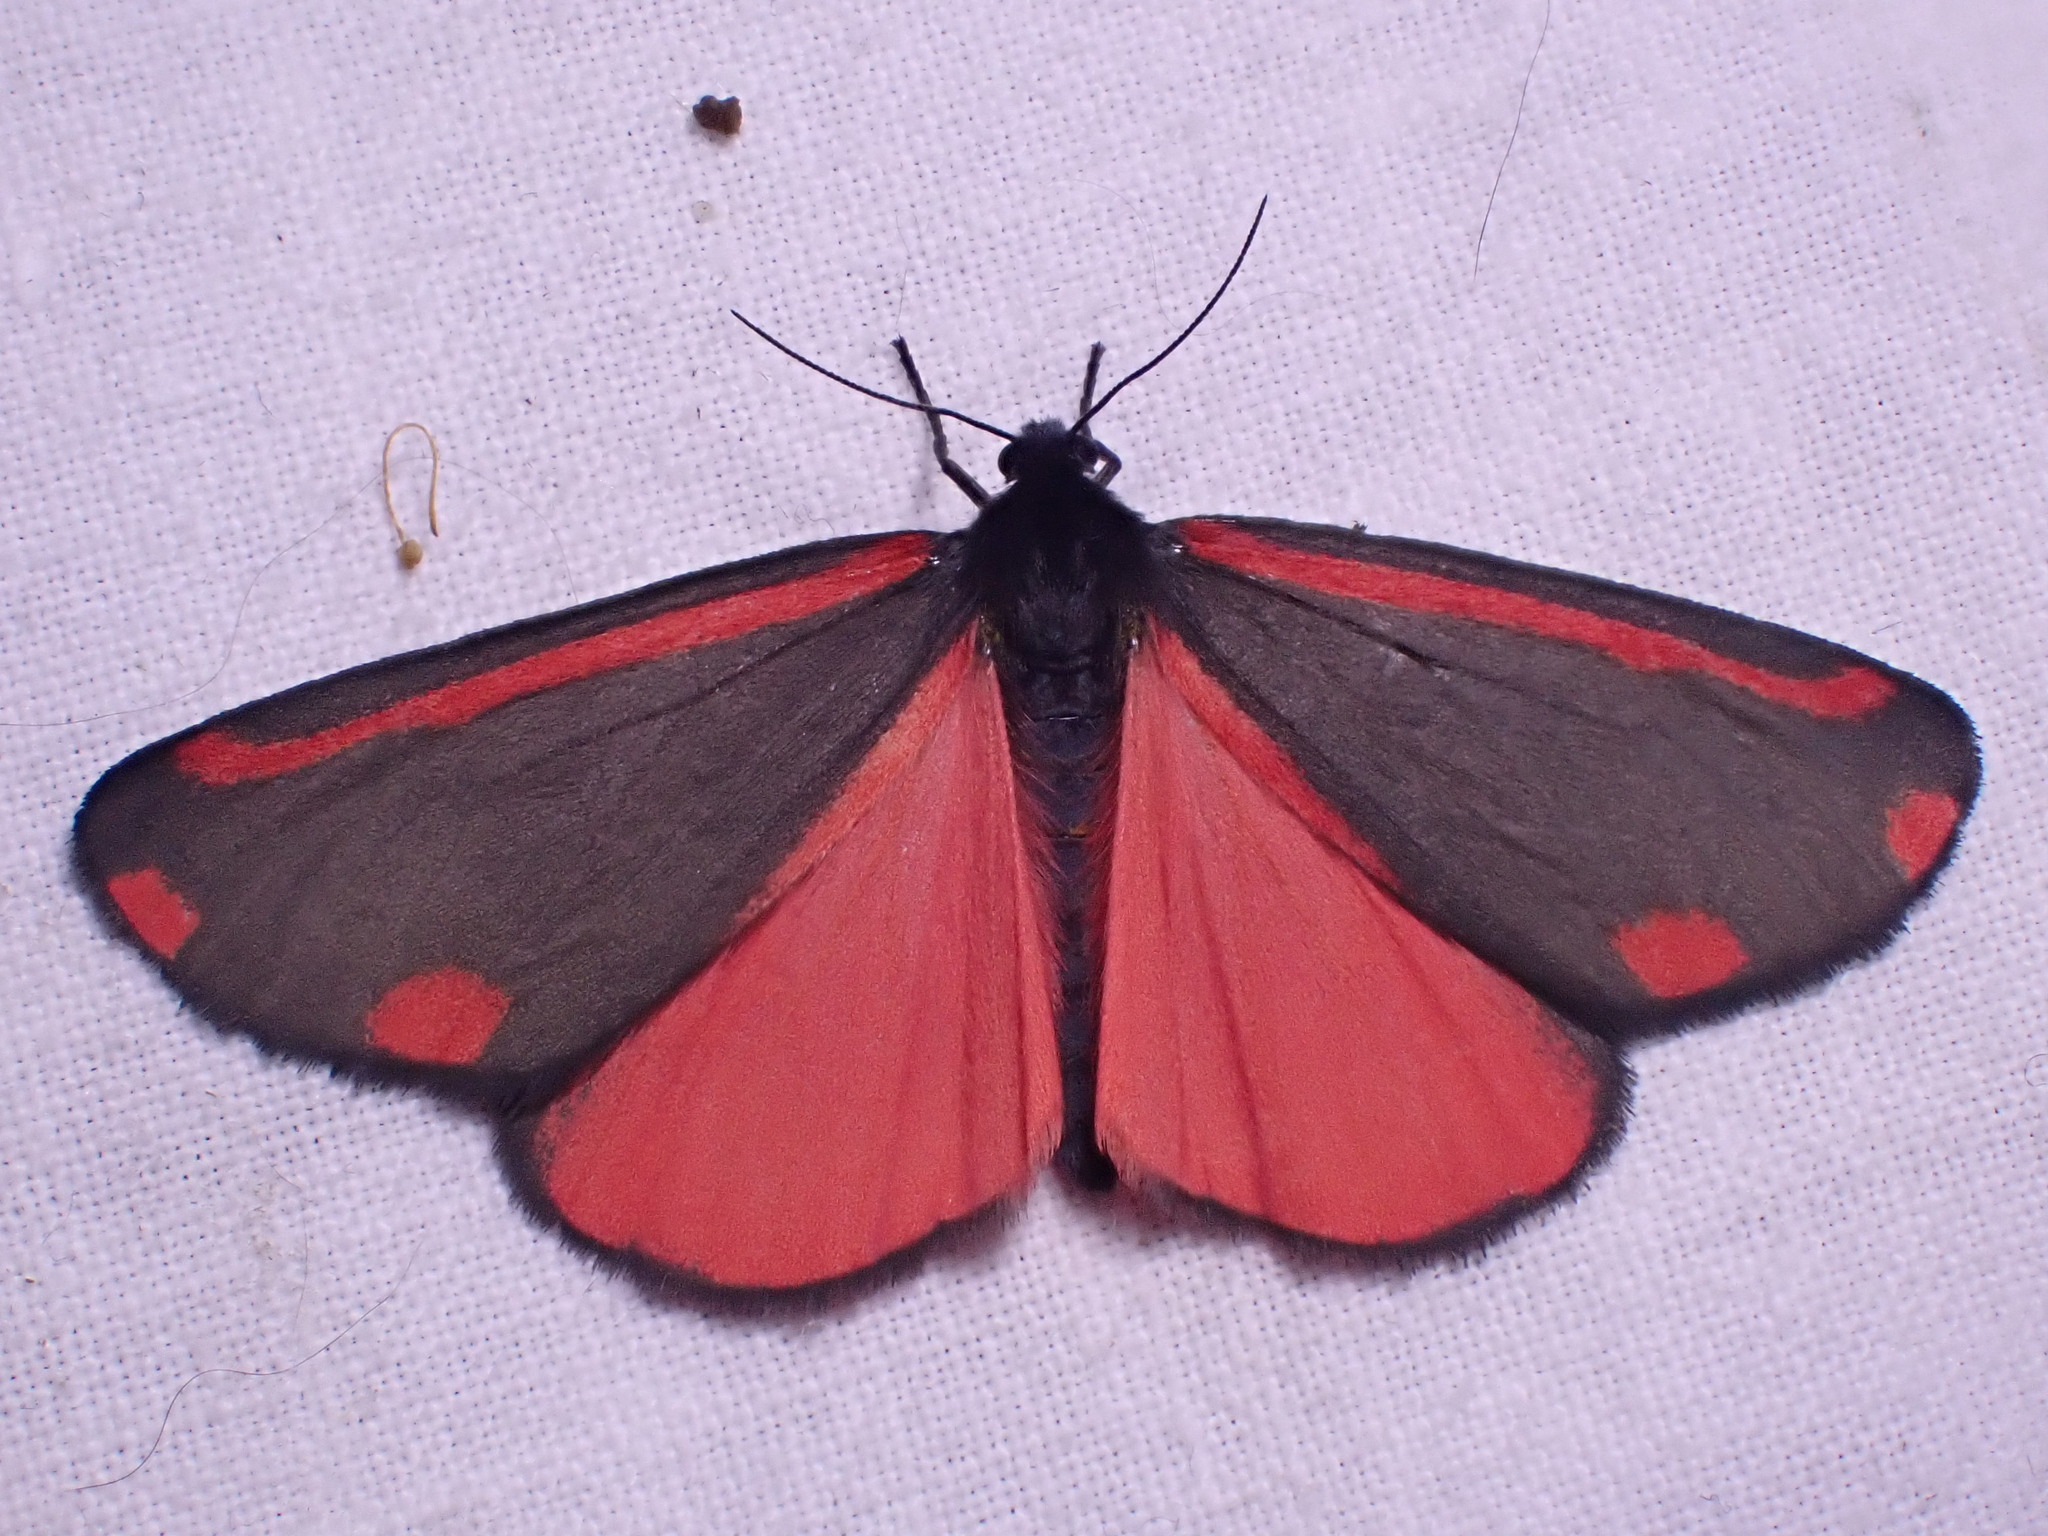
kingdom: Animalia
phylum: Arthropoda
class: Insecta
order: Lepidoptera
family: Erebidae
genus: Tyria
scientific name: Tyria jacobaeae
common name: Cinnabar
